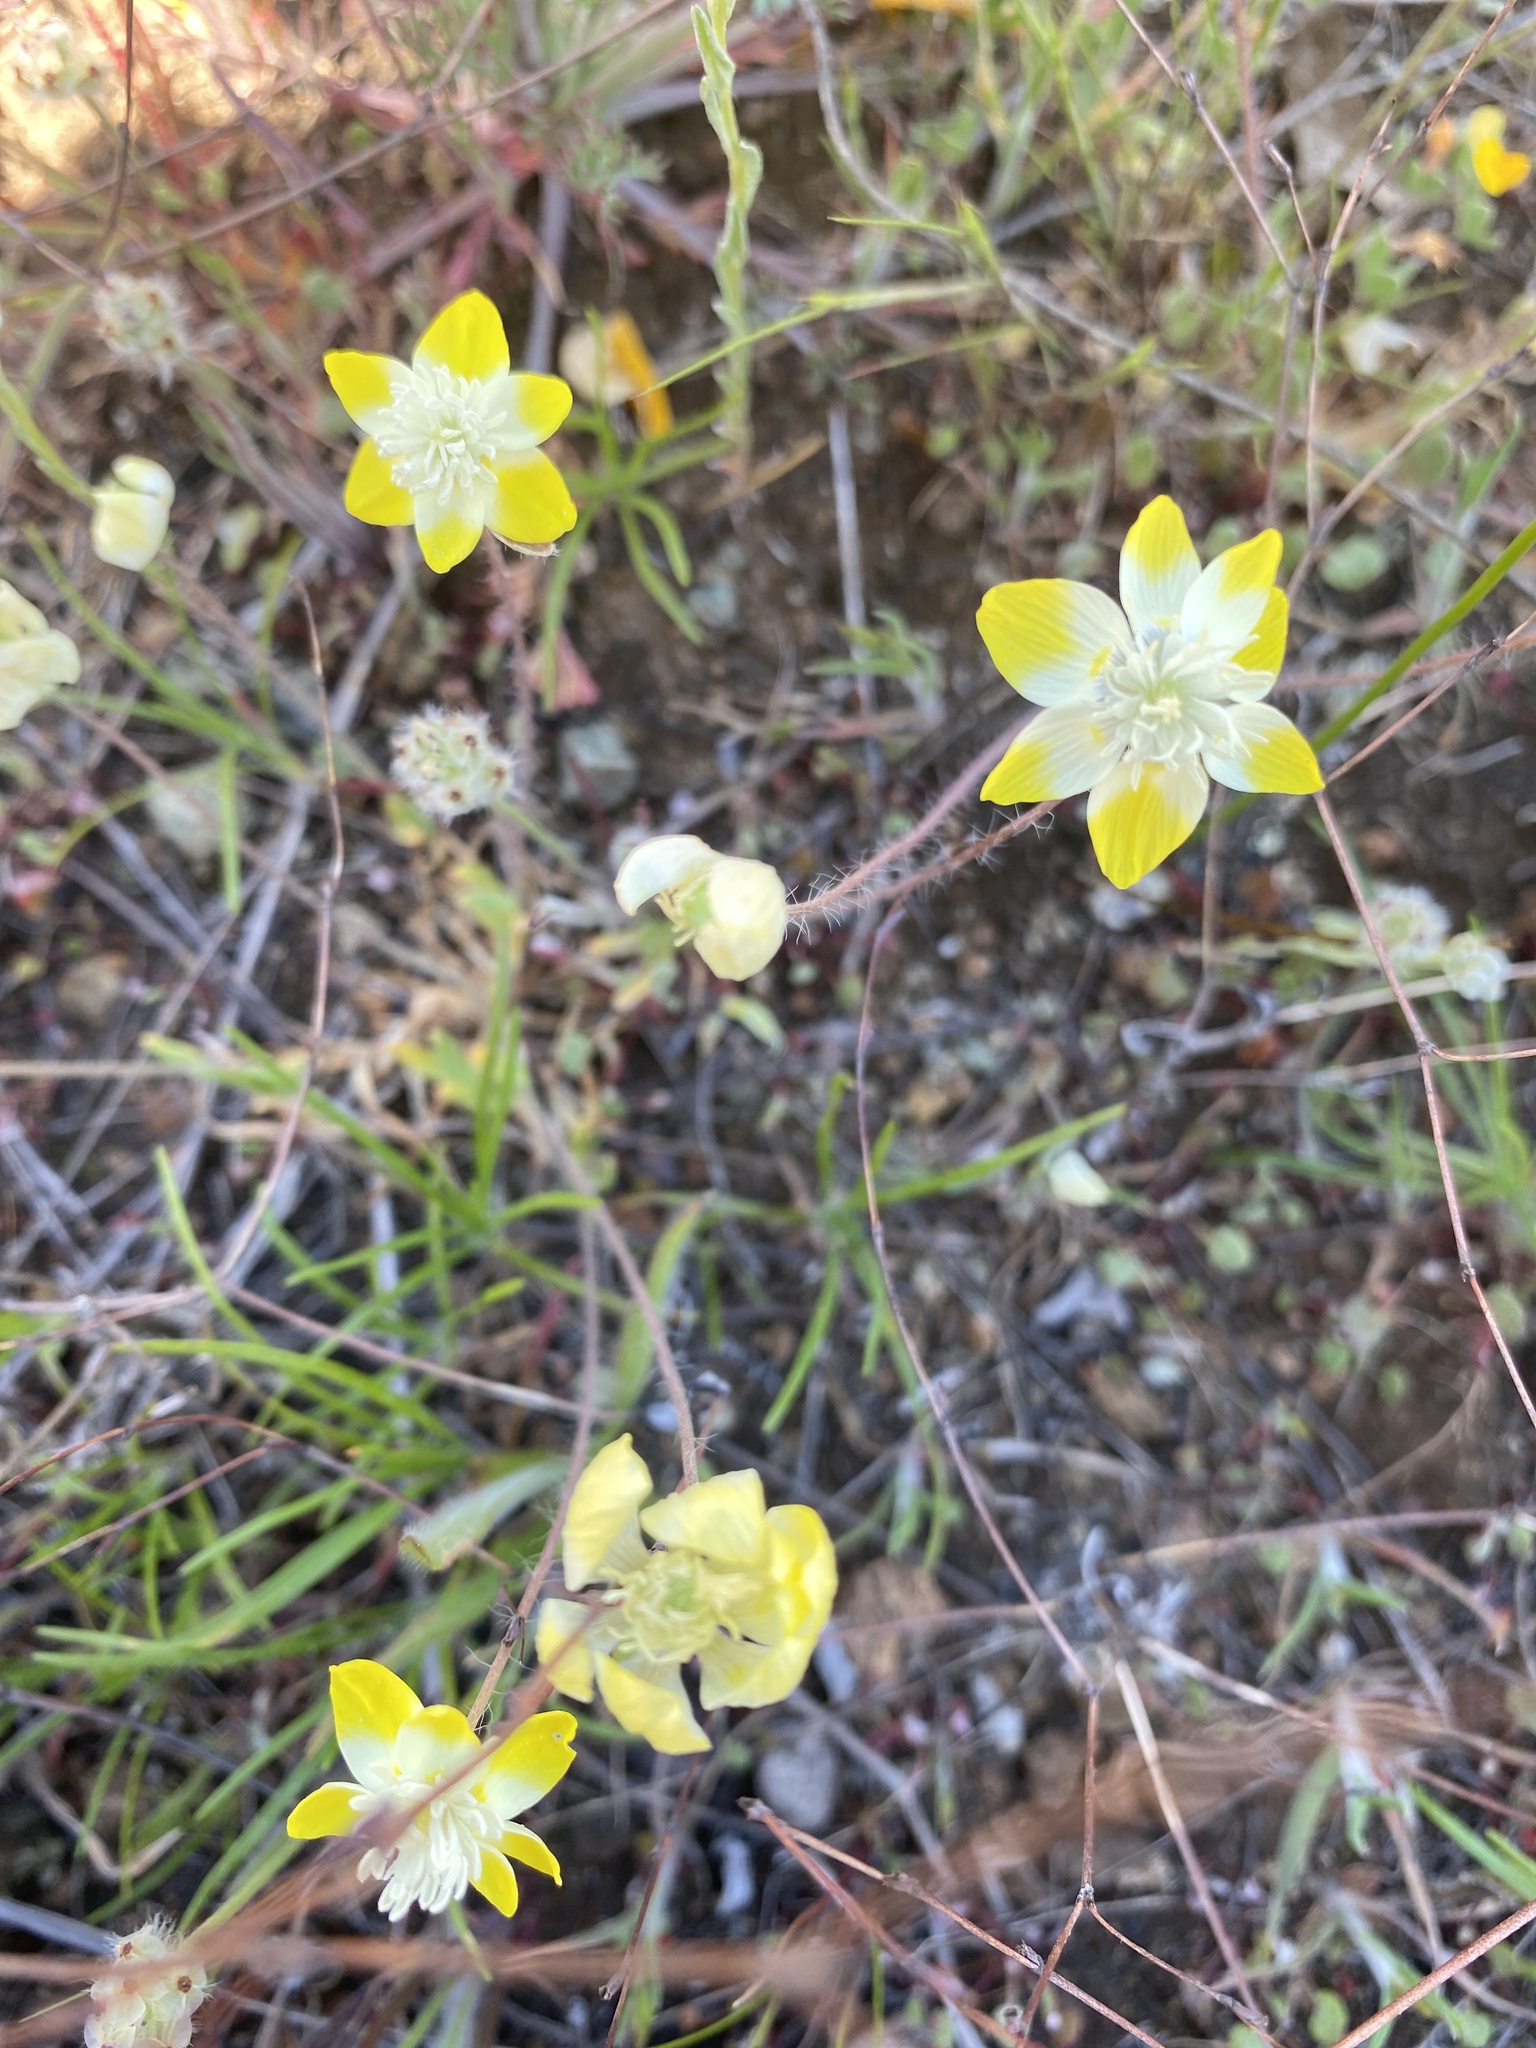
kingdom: Plantae
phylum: Tracheophyta
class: Magnoliopsida
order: Ranunculales
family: Papaveraceae
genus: Platystemon
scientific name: Platystemon californicus
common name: Cream-cups
